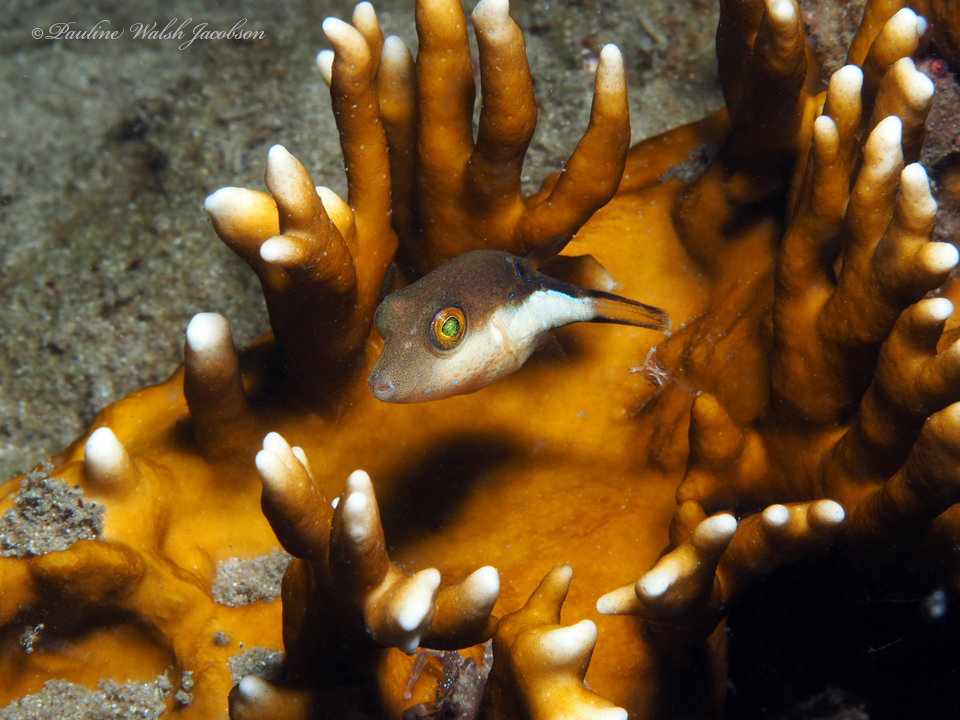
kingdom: Animalia
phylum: Chordata
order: Tetraodontiformes
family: Tetraodontidae
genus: Canthigaster
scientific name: Canthigaster rostrata
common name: Caribbean sharpnose-puffer
